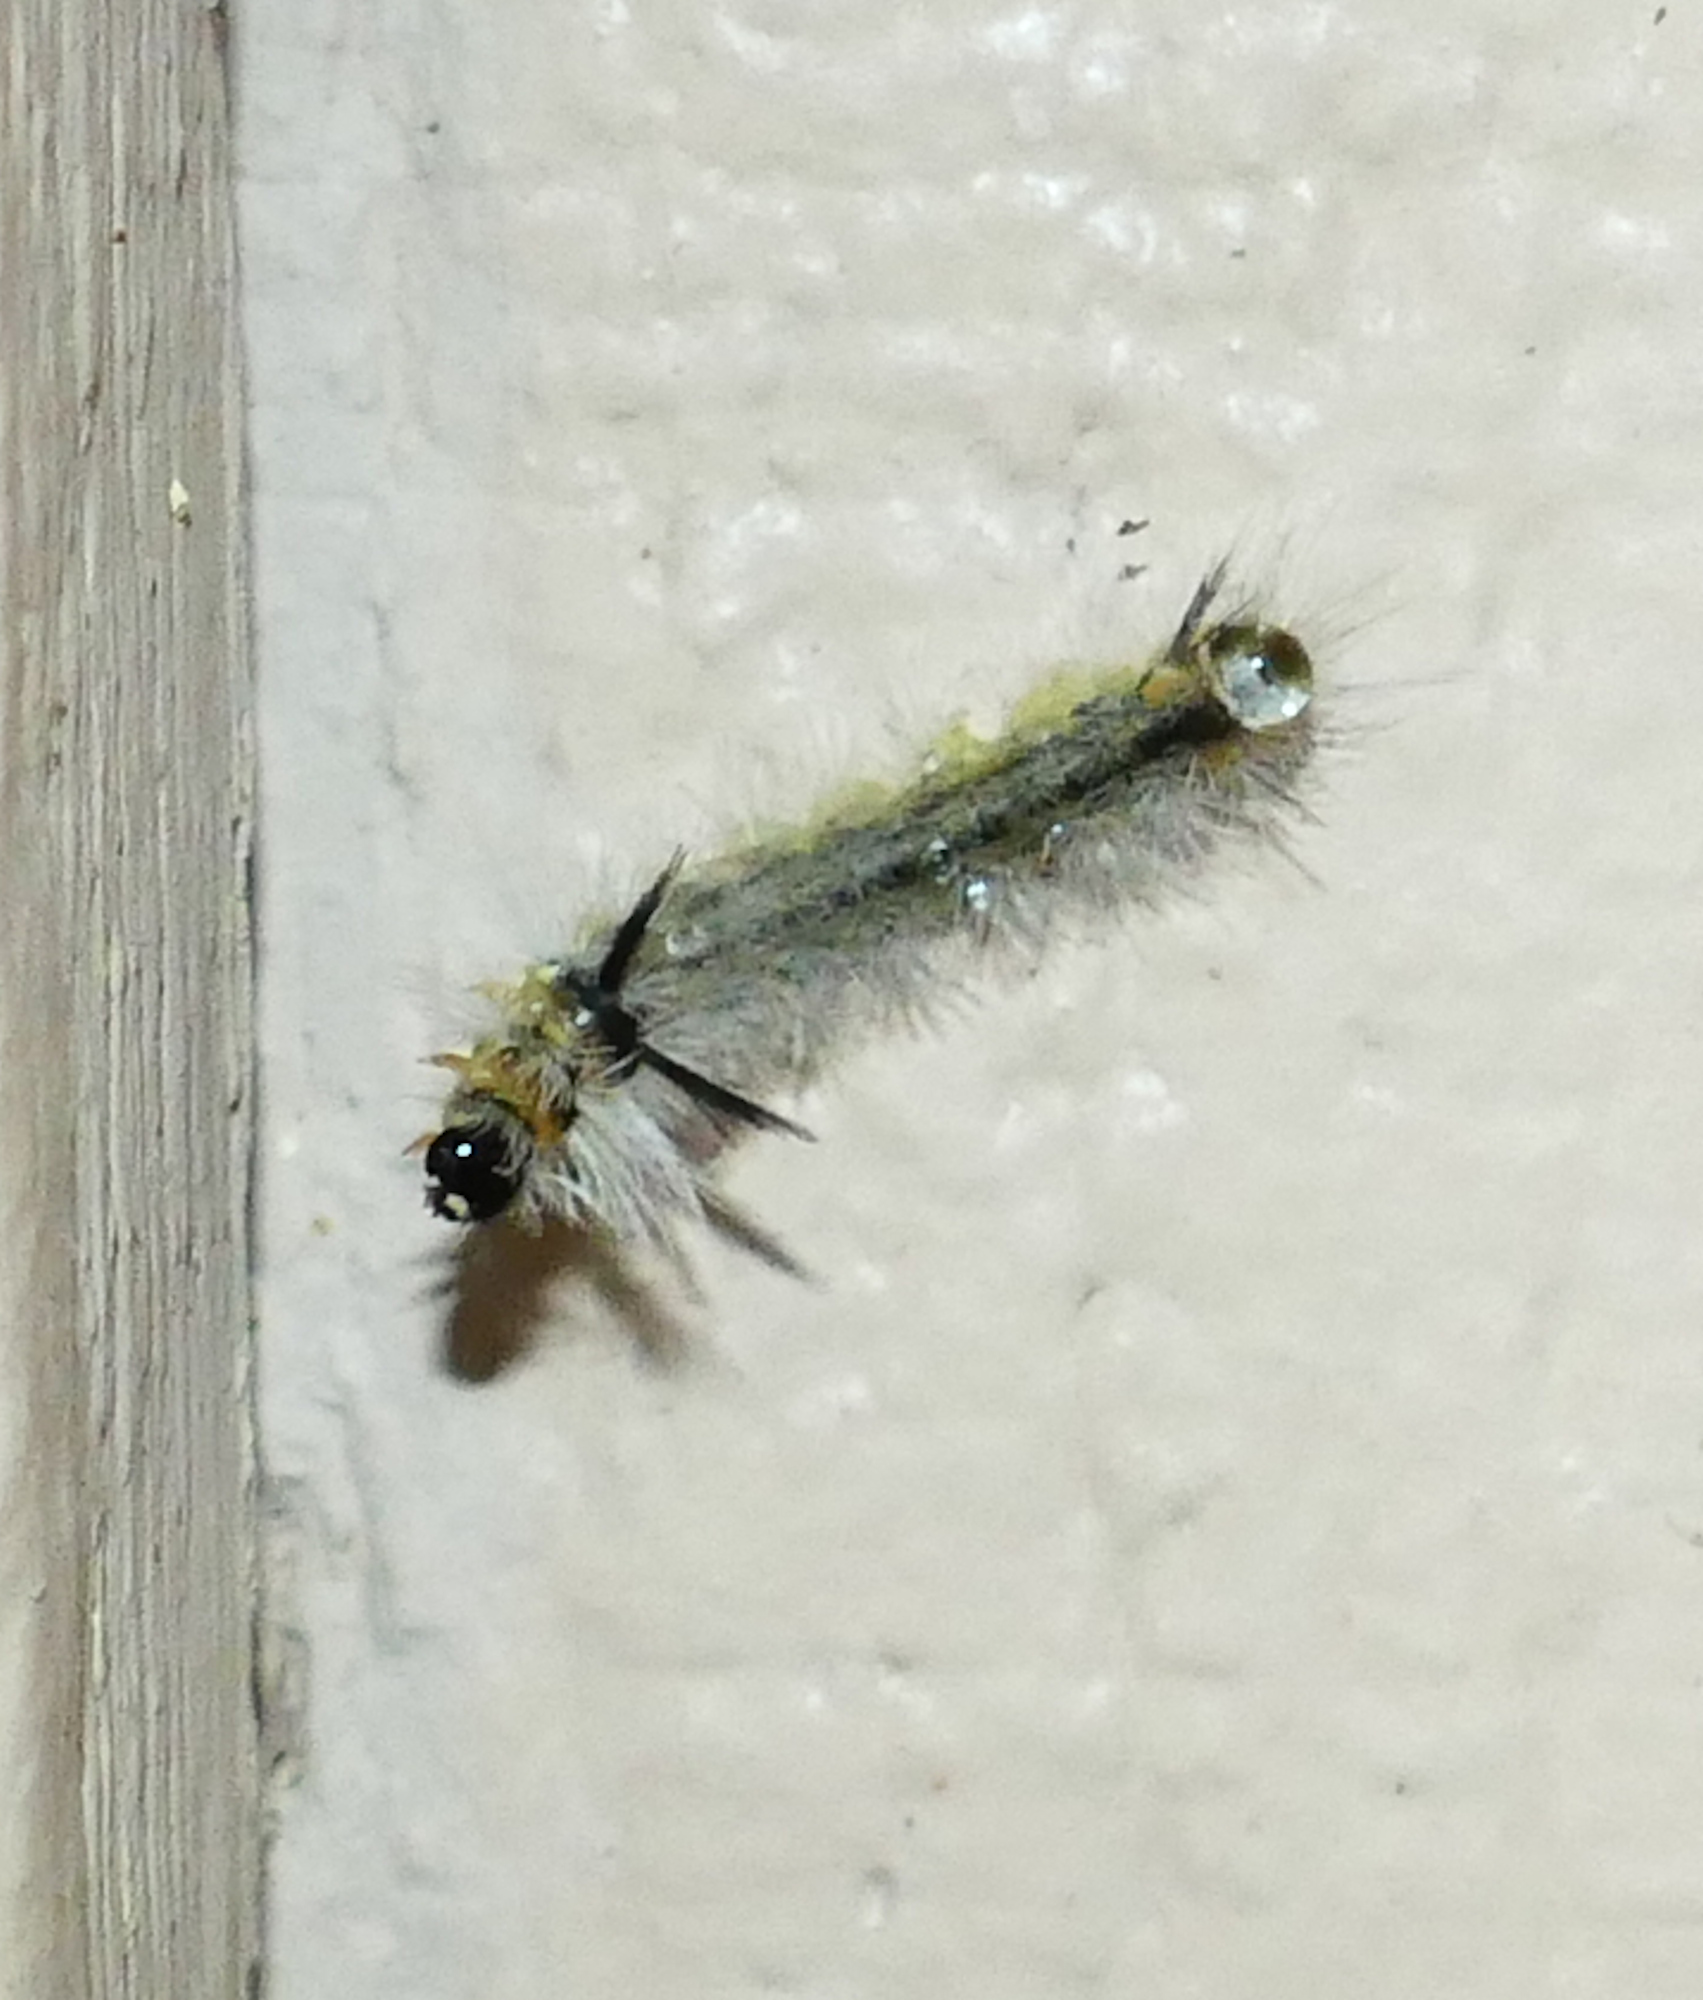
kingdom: Animalia
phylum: Arthropoda
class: Insecta
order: Lepidoptera
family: Erebidae
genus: Halysidota
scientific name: Halysidota tessellaris
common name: Banded tussock moth
